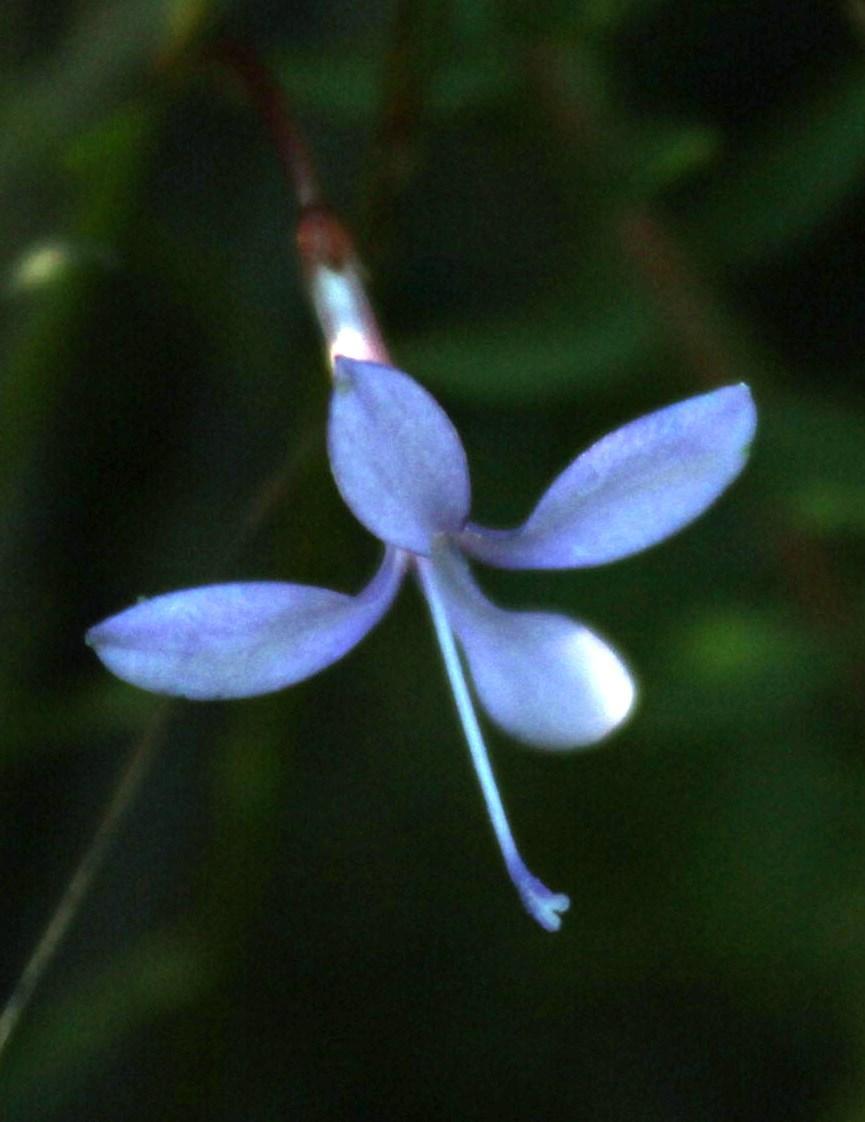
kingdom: Plantae
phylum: Tracheophyta
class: Magnoliopsida
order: Asterales
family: Campanulaceae
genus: Prismatocarpus
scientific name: Prismatocarpus diffusus
